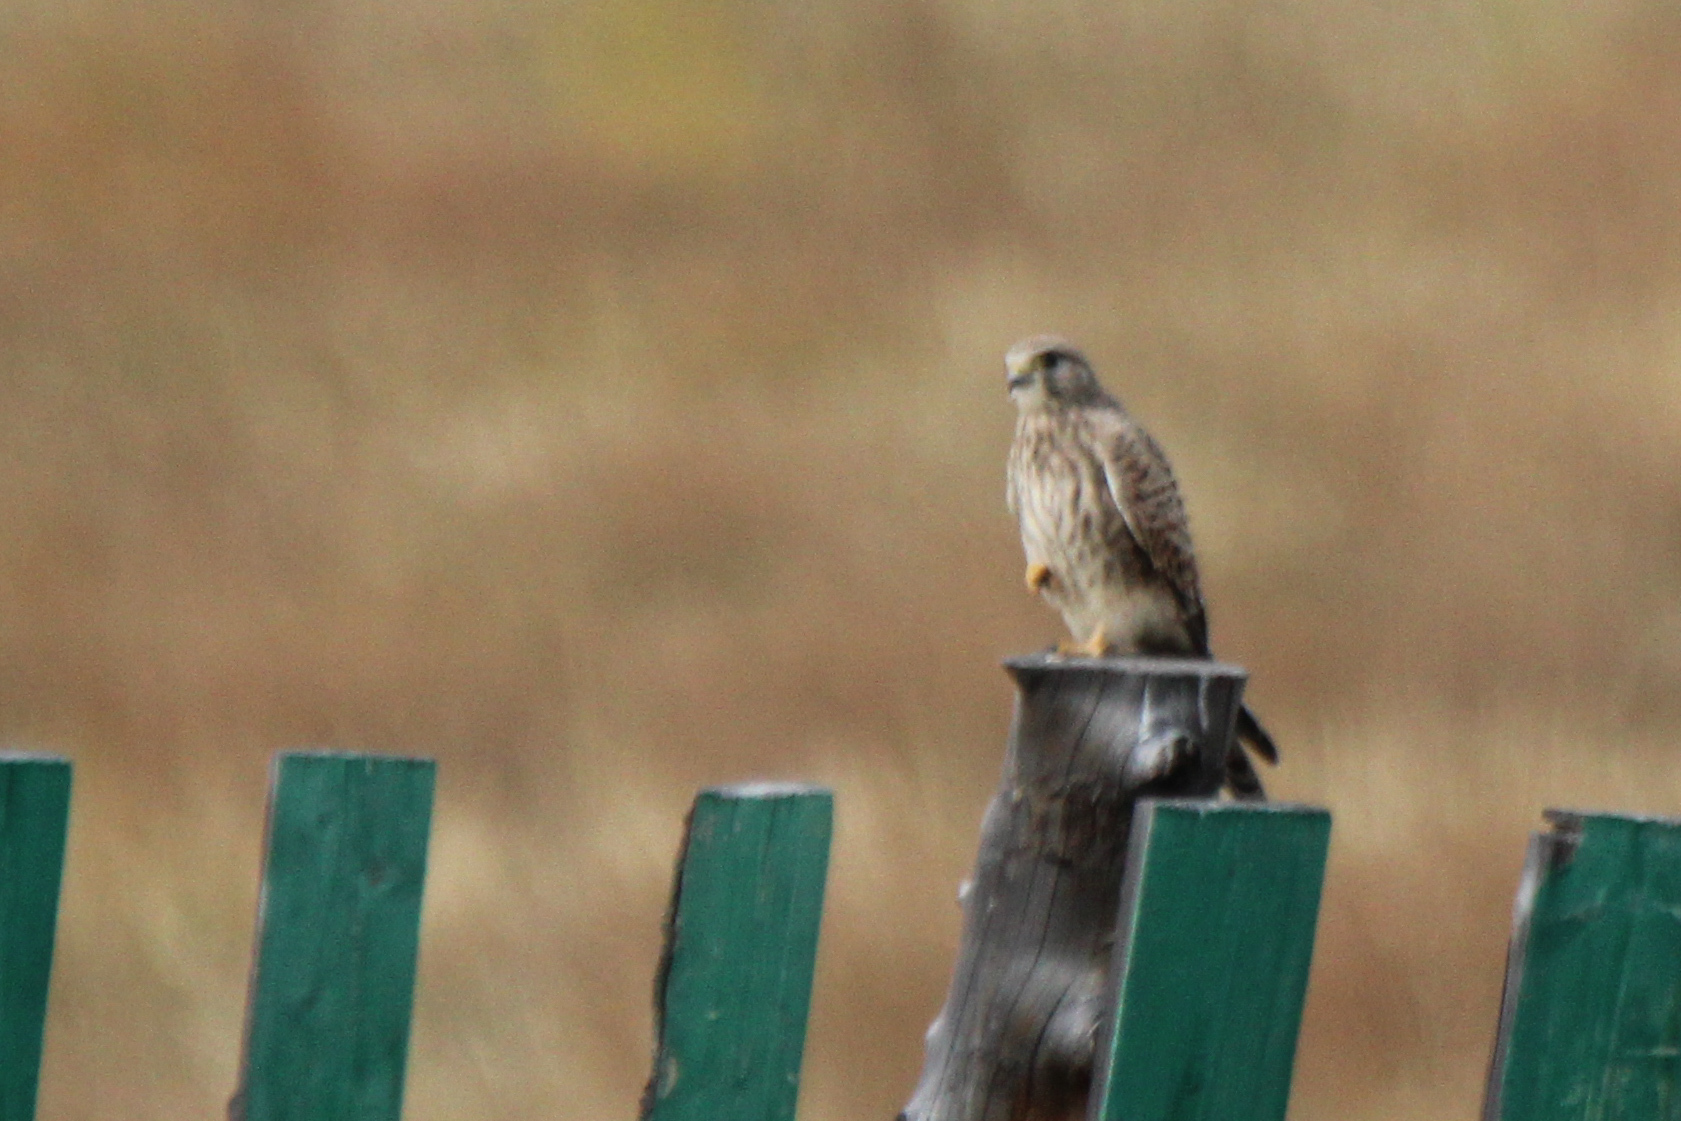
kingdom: Animalia
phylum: Chordata
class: Aves
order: Falconiformes
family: Falconidae
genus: Falco
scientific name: Falco tinnunculus
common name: Common kestrel
